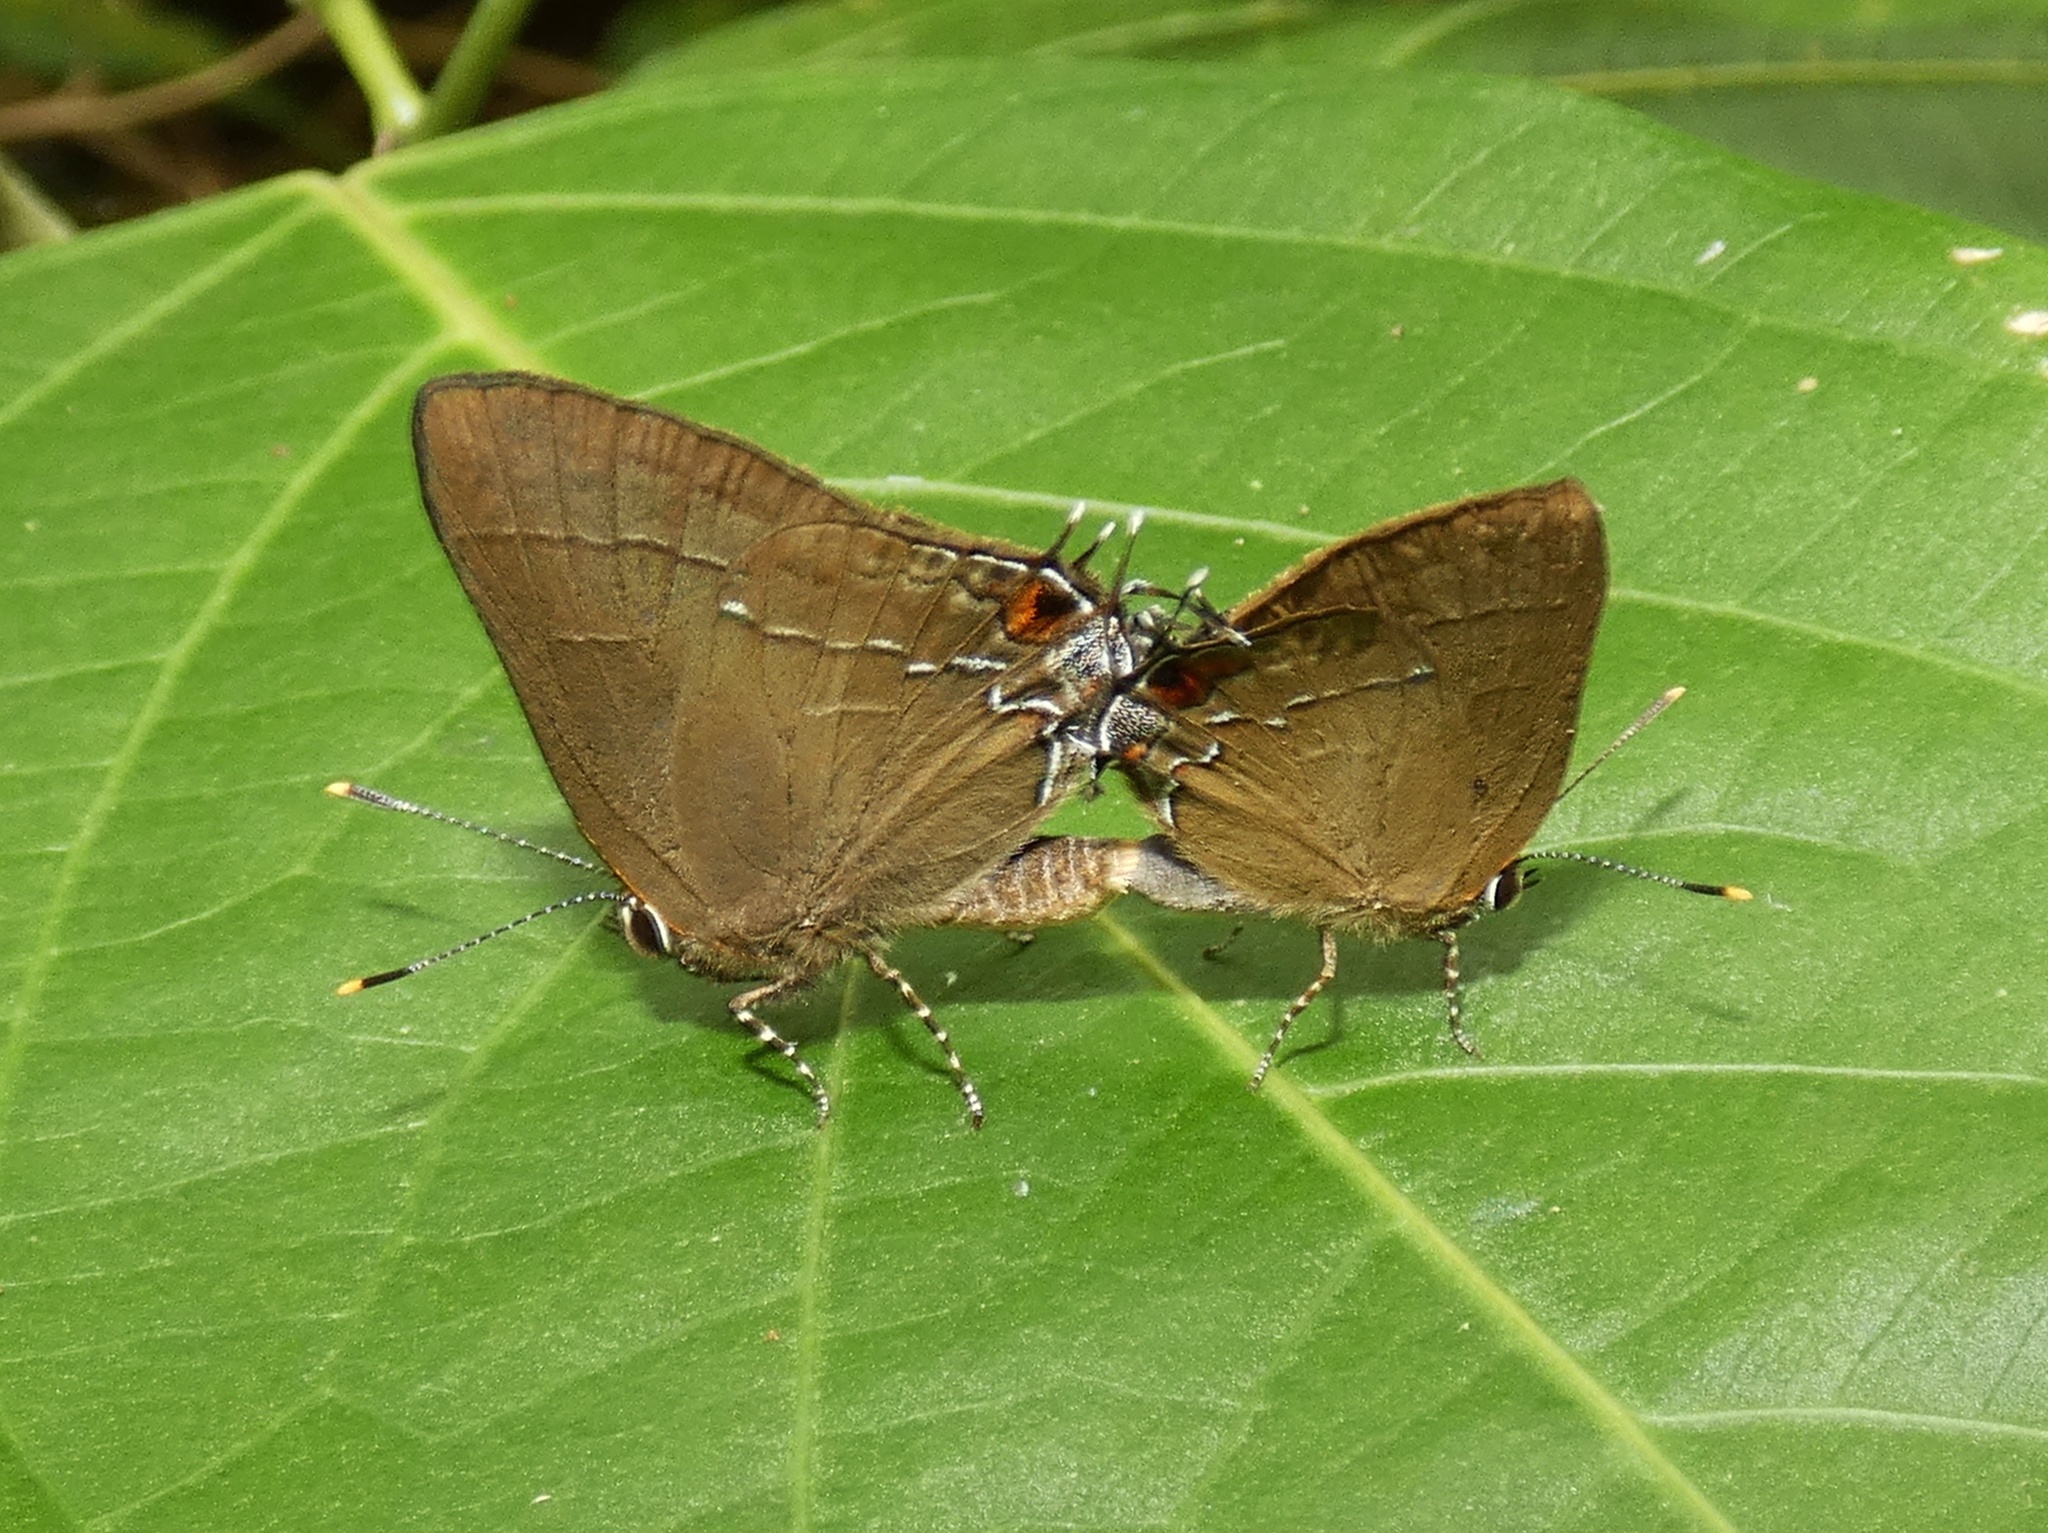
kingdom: Animalia
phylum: Arthropoda
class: Insecta
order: Lepidoptera
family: Lycaenidae
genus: Ziegleria
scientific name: Ziegleria hesperitis
